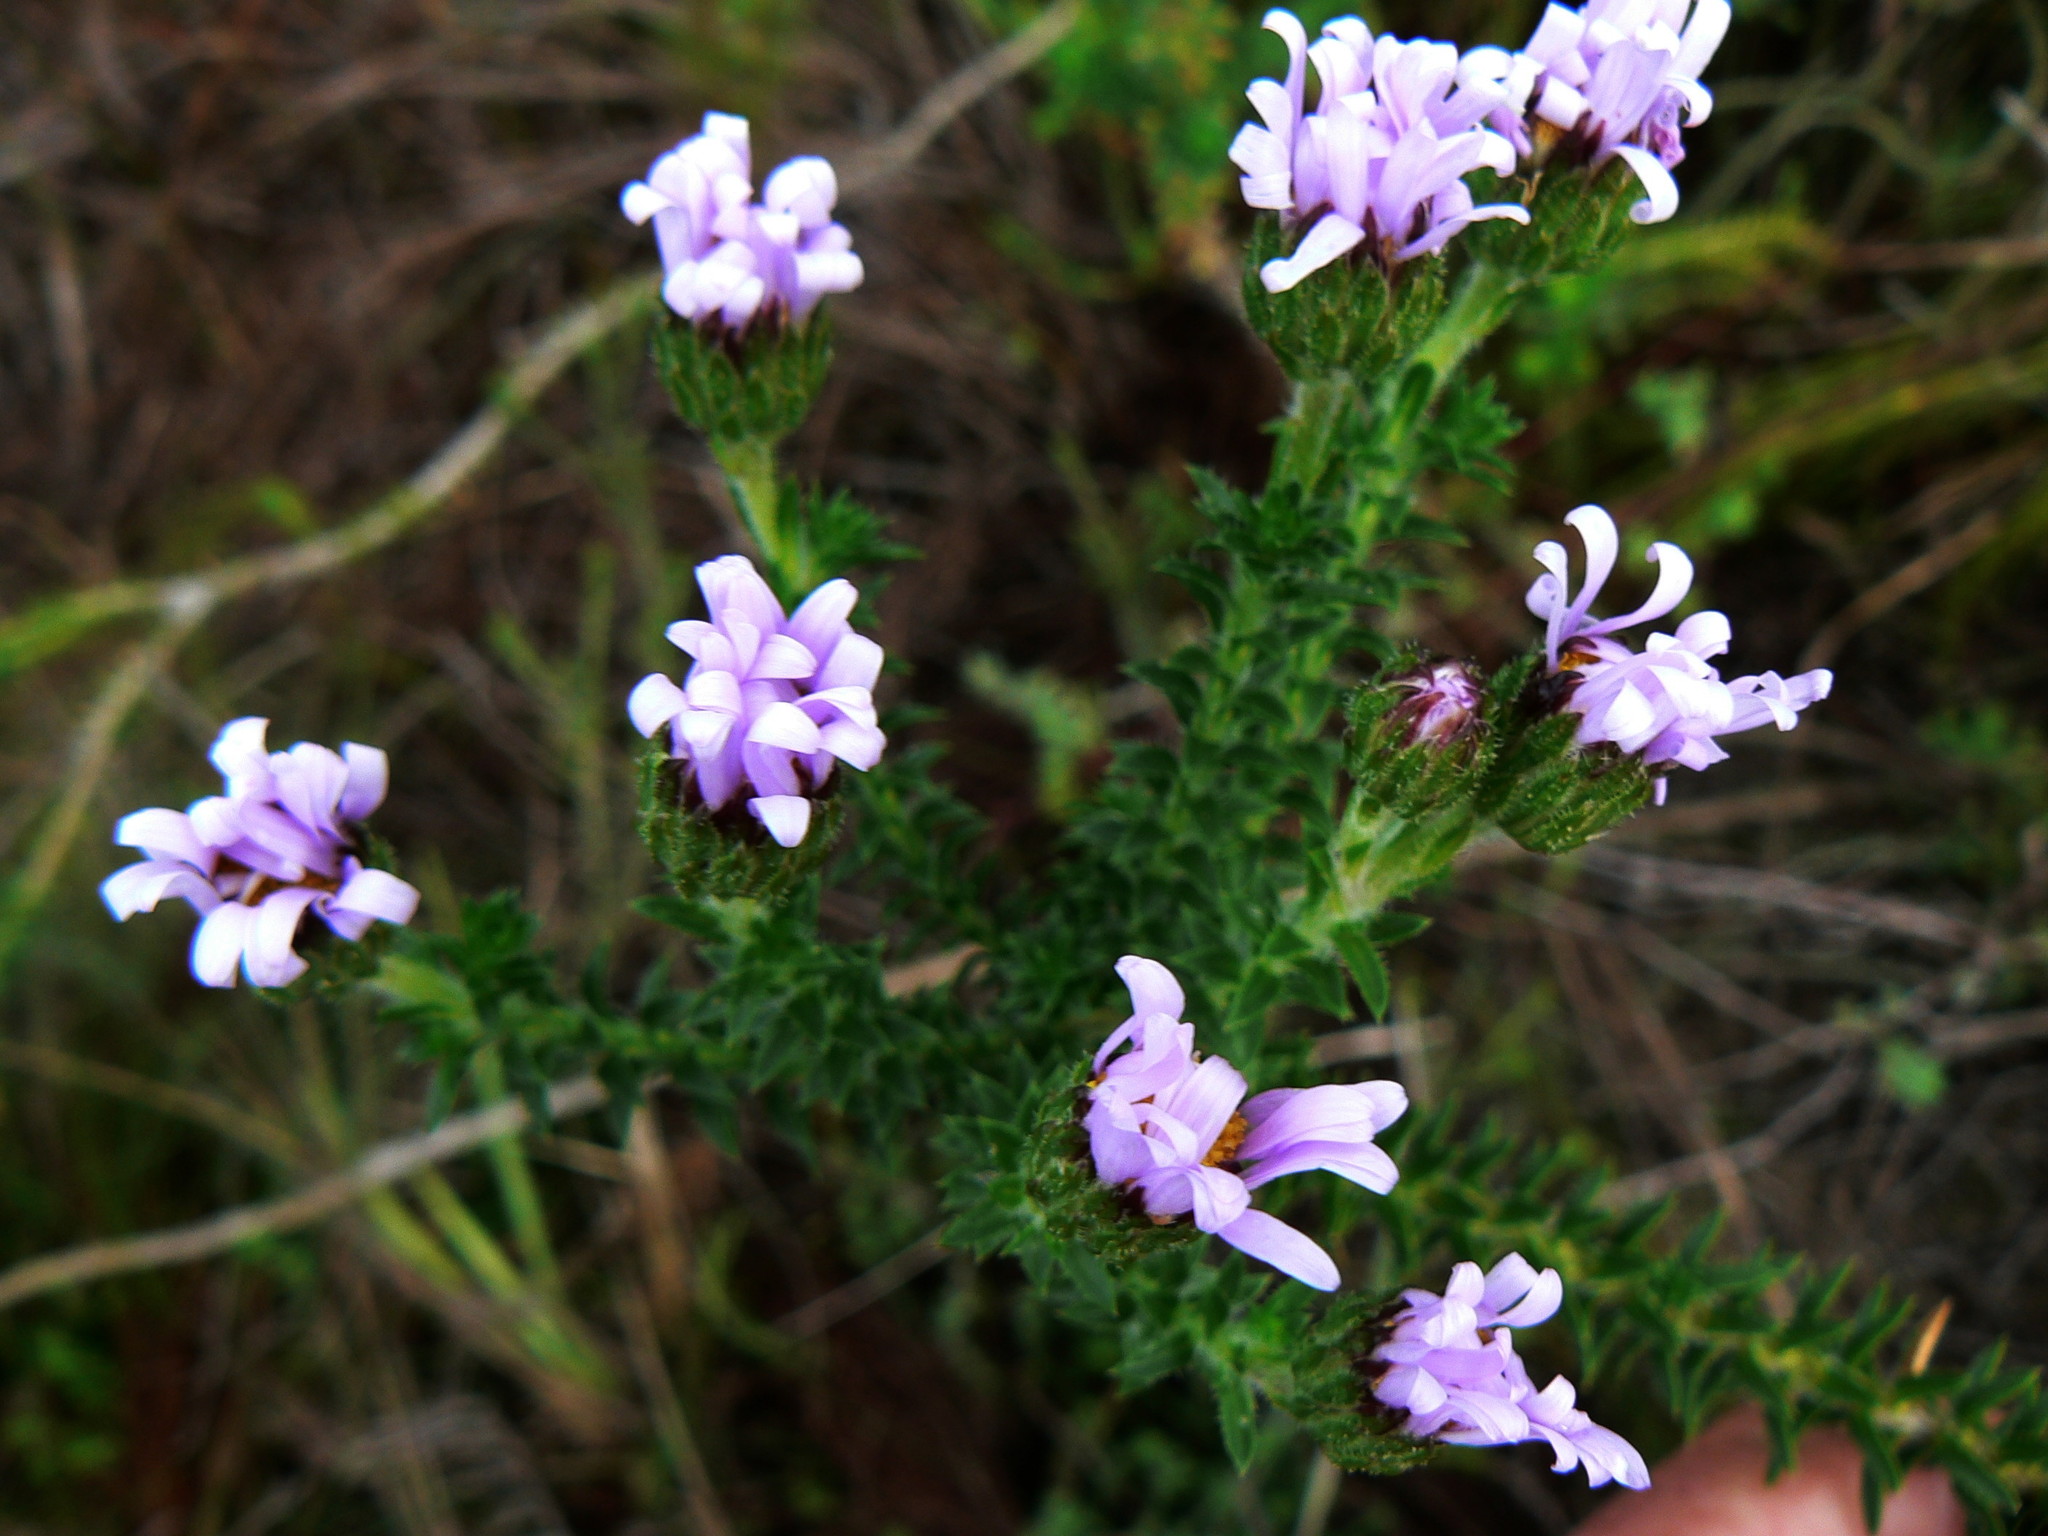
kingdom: Plantae
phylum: Tracheophyta
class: Magnoliopsida
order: Asterales
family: Asteraceae
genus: Felicia
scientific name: Felicia echinata
